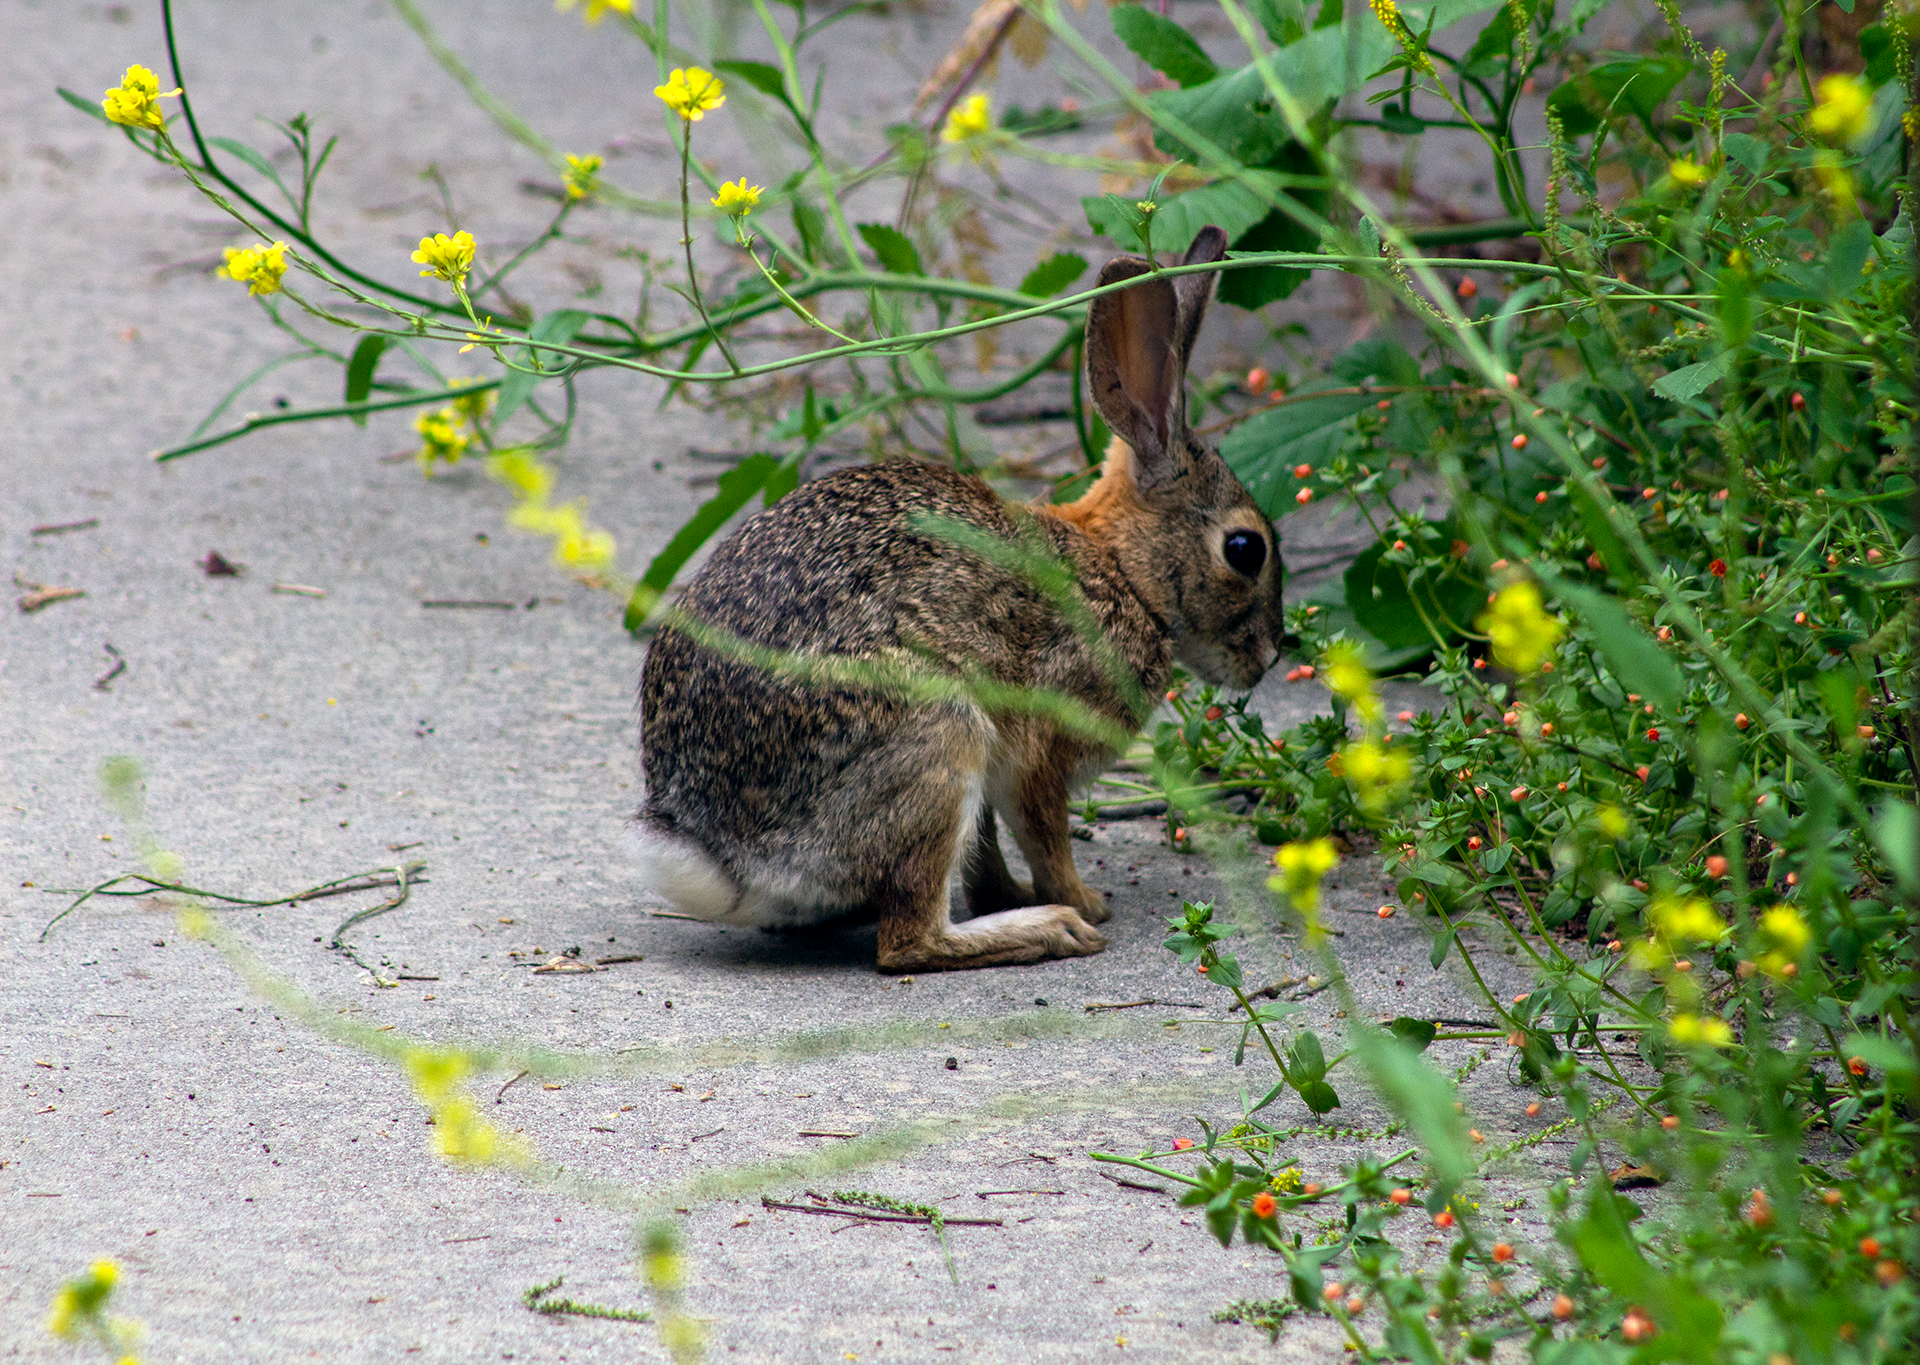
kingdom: Animalia
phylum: Chordata
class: Mammalia
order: Lagomorpha
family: Leporidae
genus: Sylvilagus
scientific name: Sylvilagus audubonii
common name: Desert cottontail
